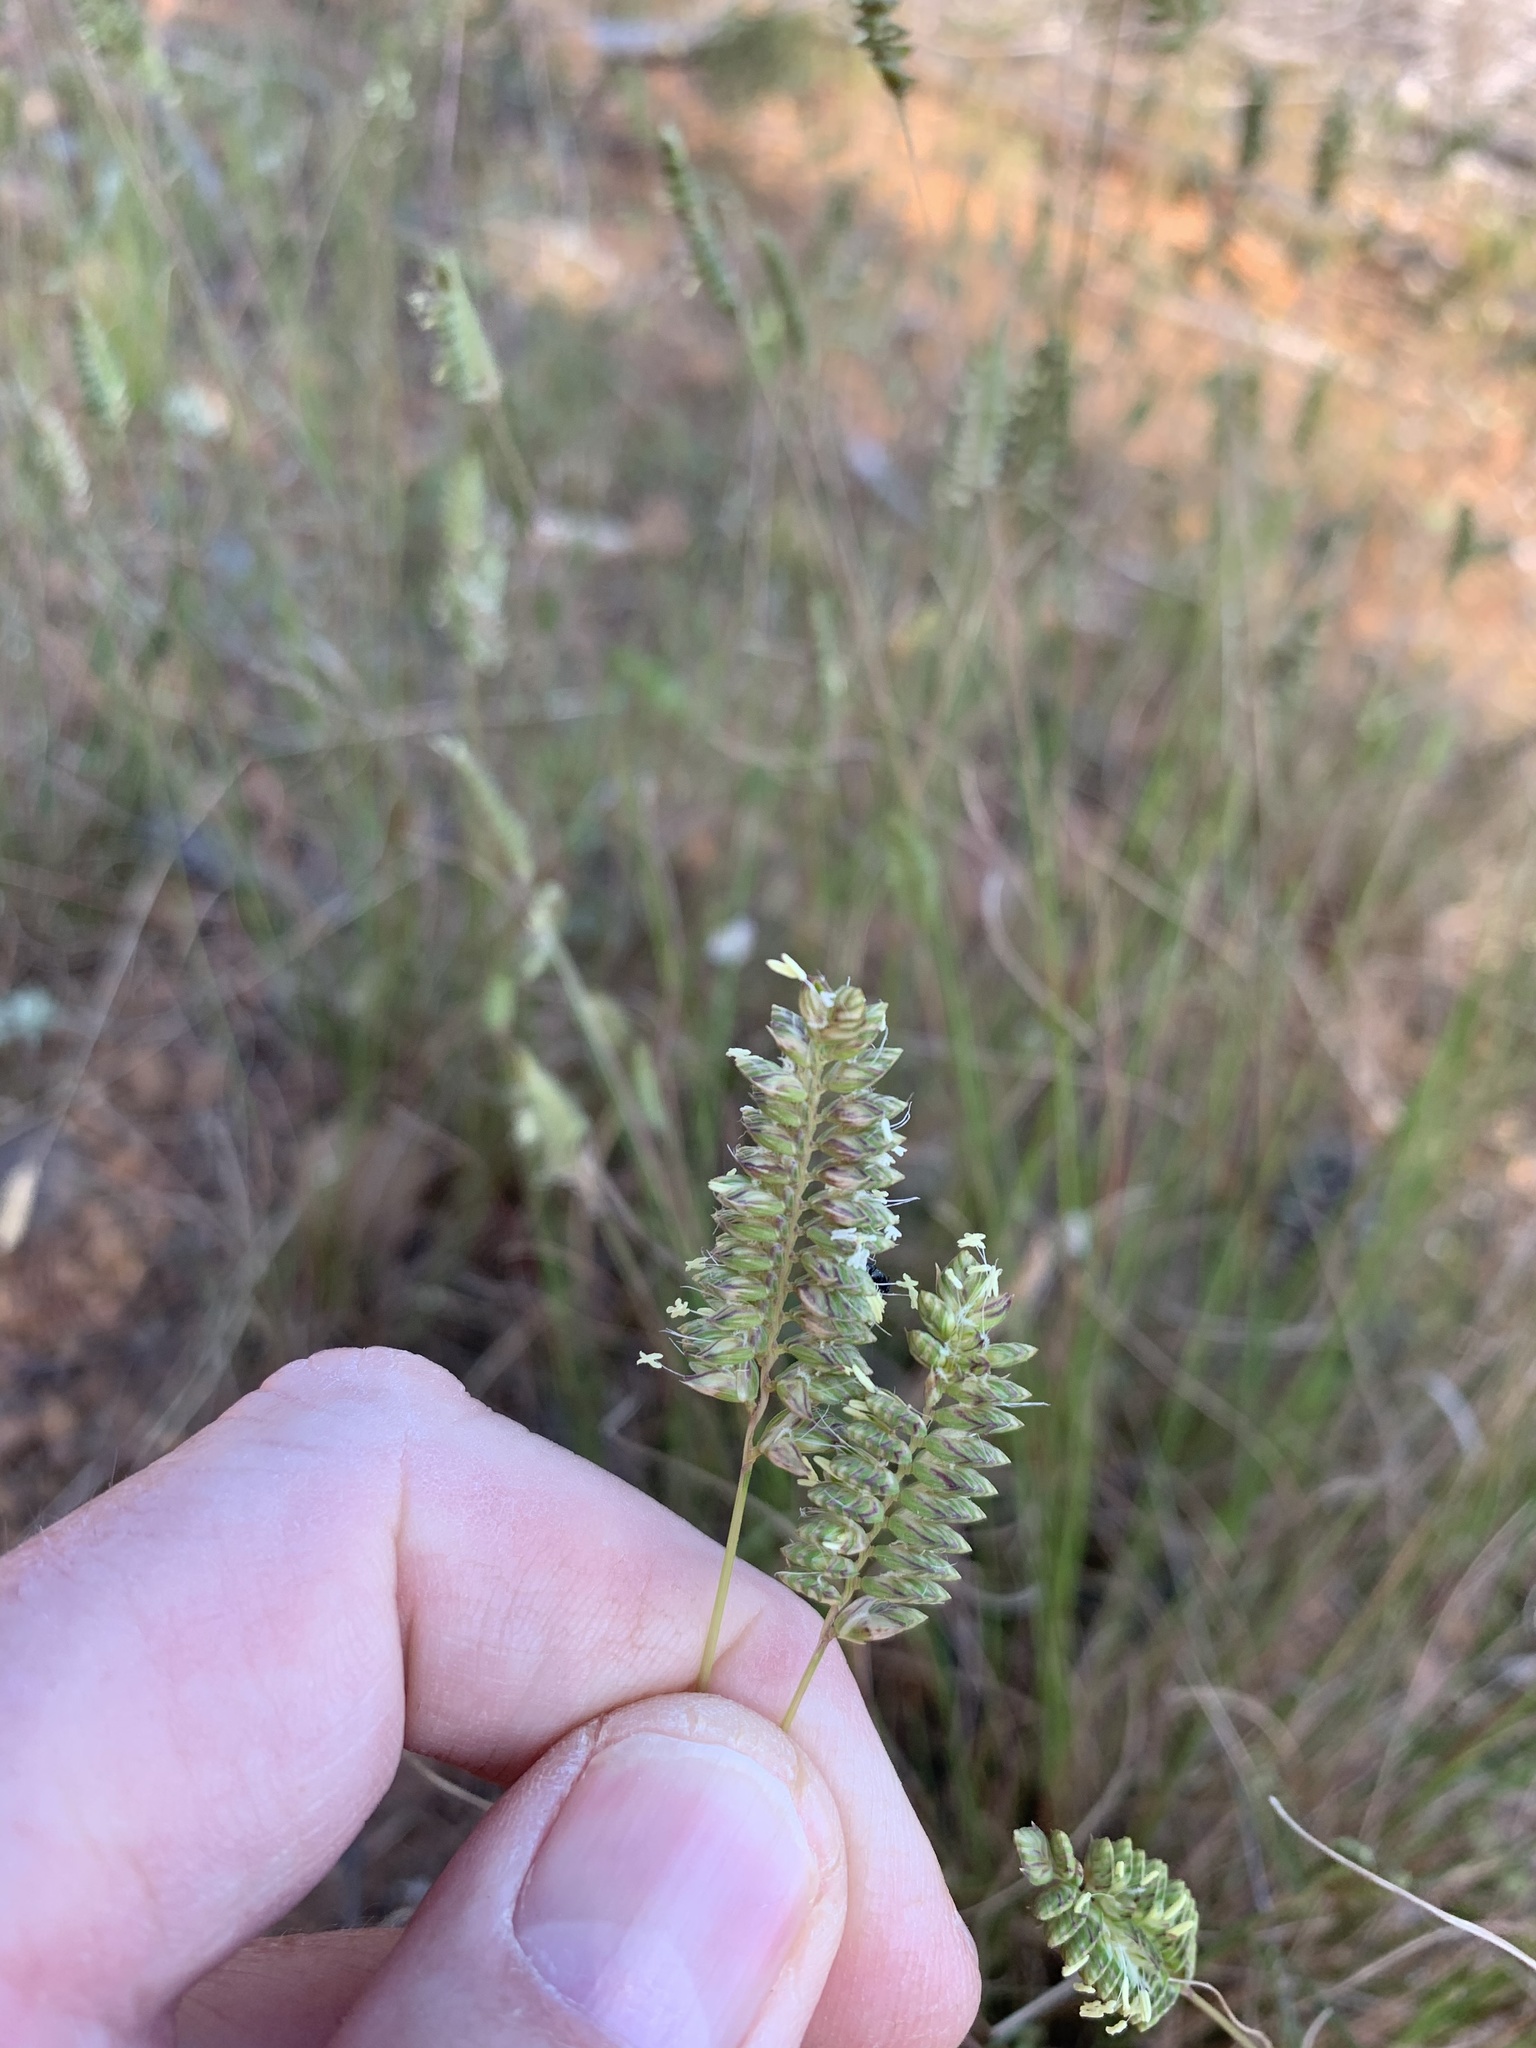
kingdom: Plantae
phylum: Tracheophyta
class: Liliopsida
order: Poales
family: Poaceae
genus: Tribolium
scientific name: Tribolium uniolae
